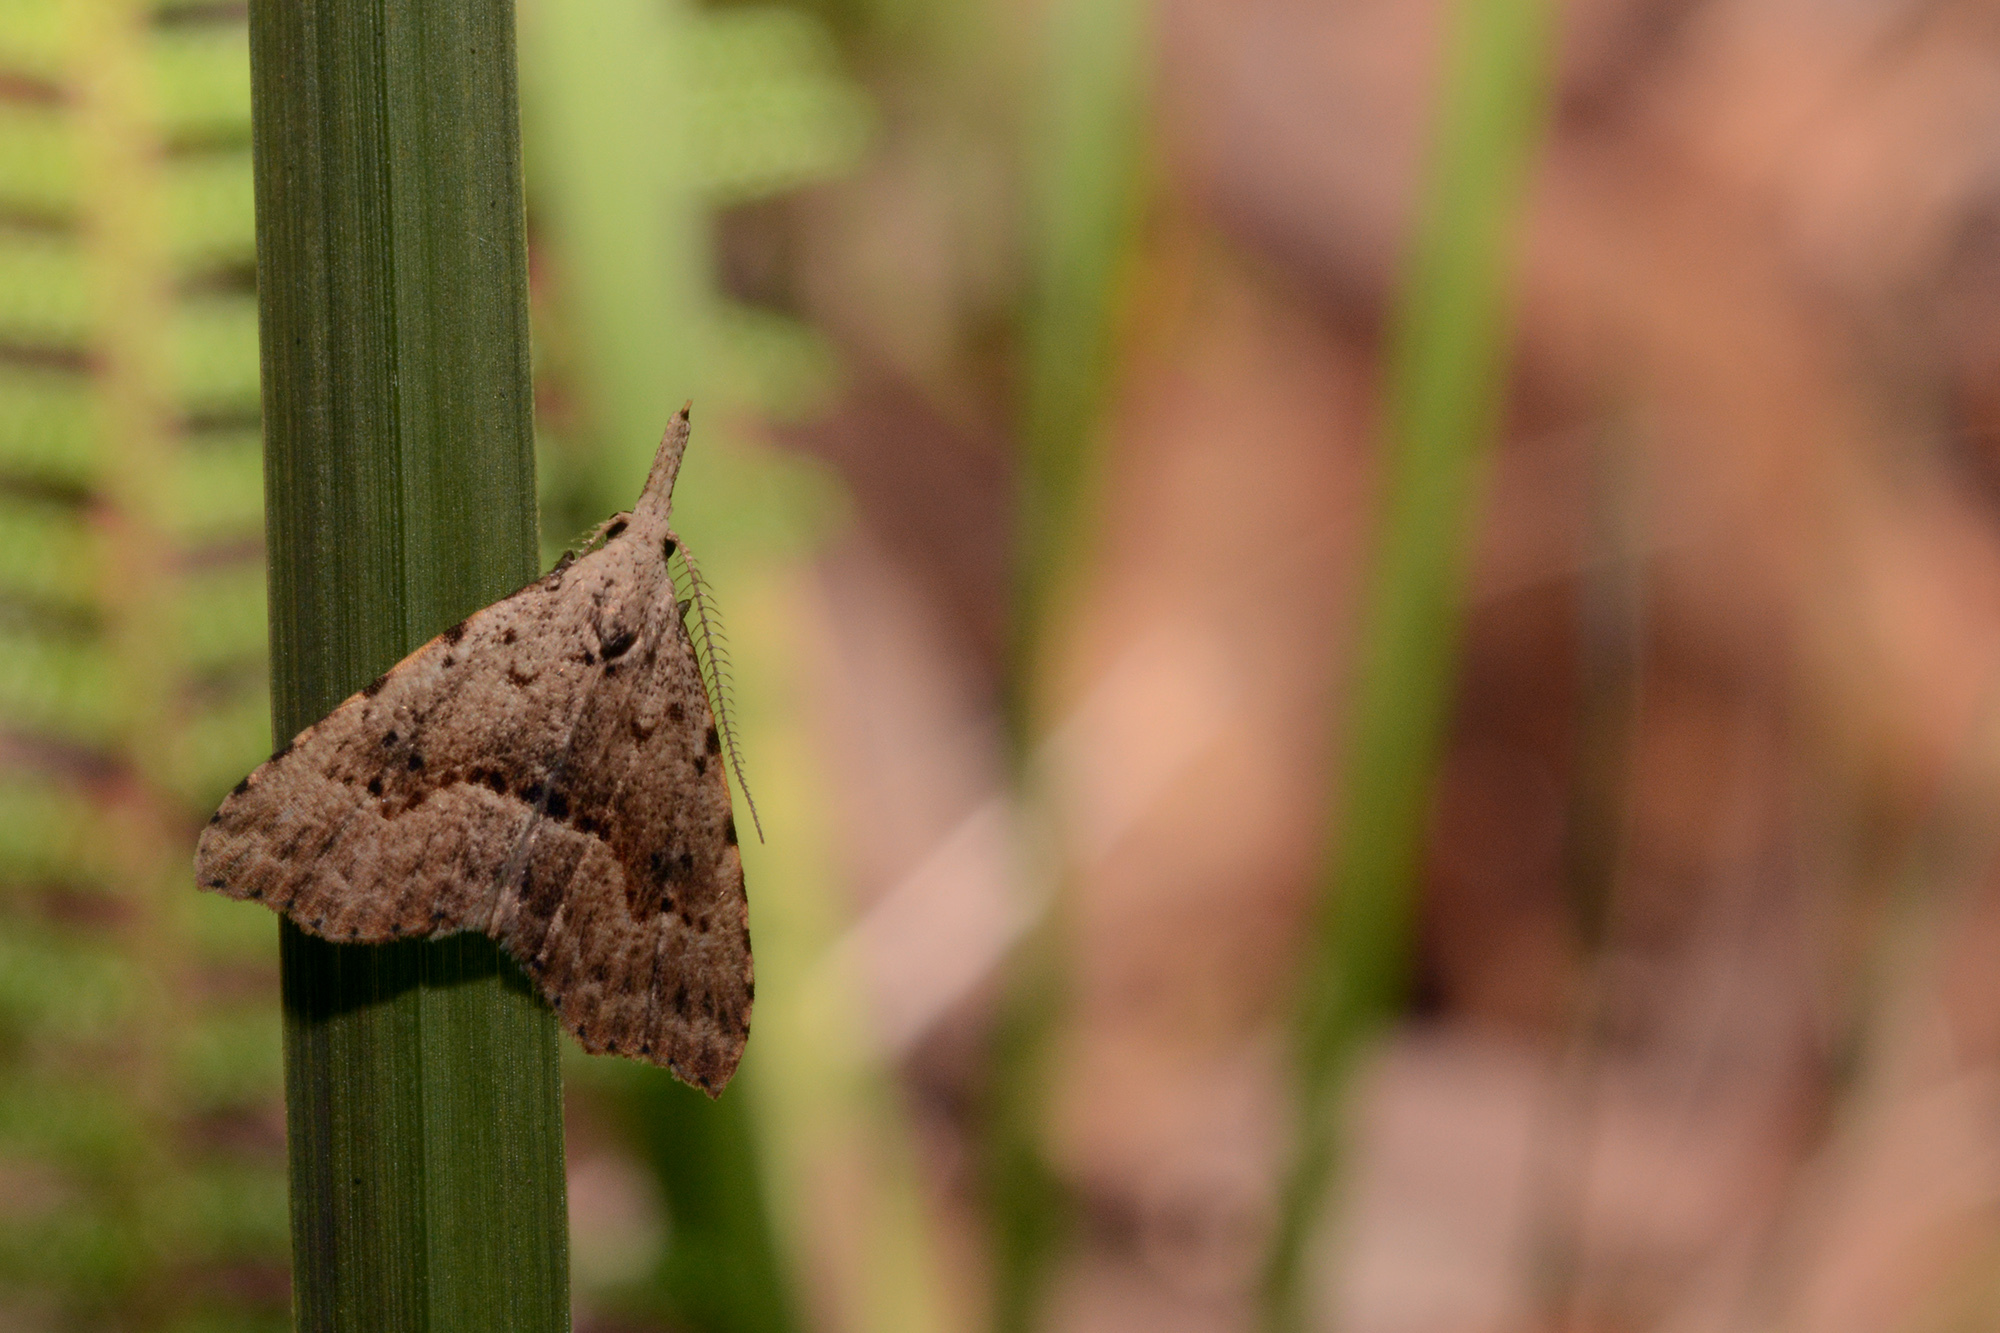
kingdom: Animalia
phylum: Arthropoda
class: Insecta
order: Lepidoptera
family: Erebidae
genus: Trigonistis
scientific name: Trigonistis asthenopa
